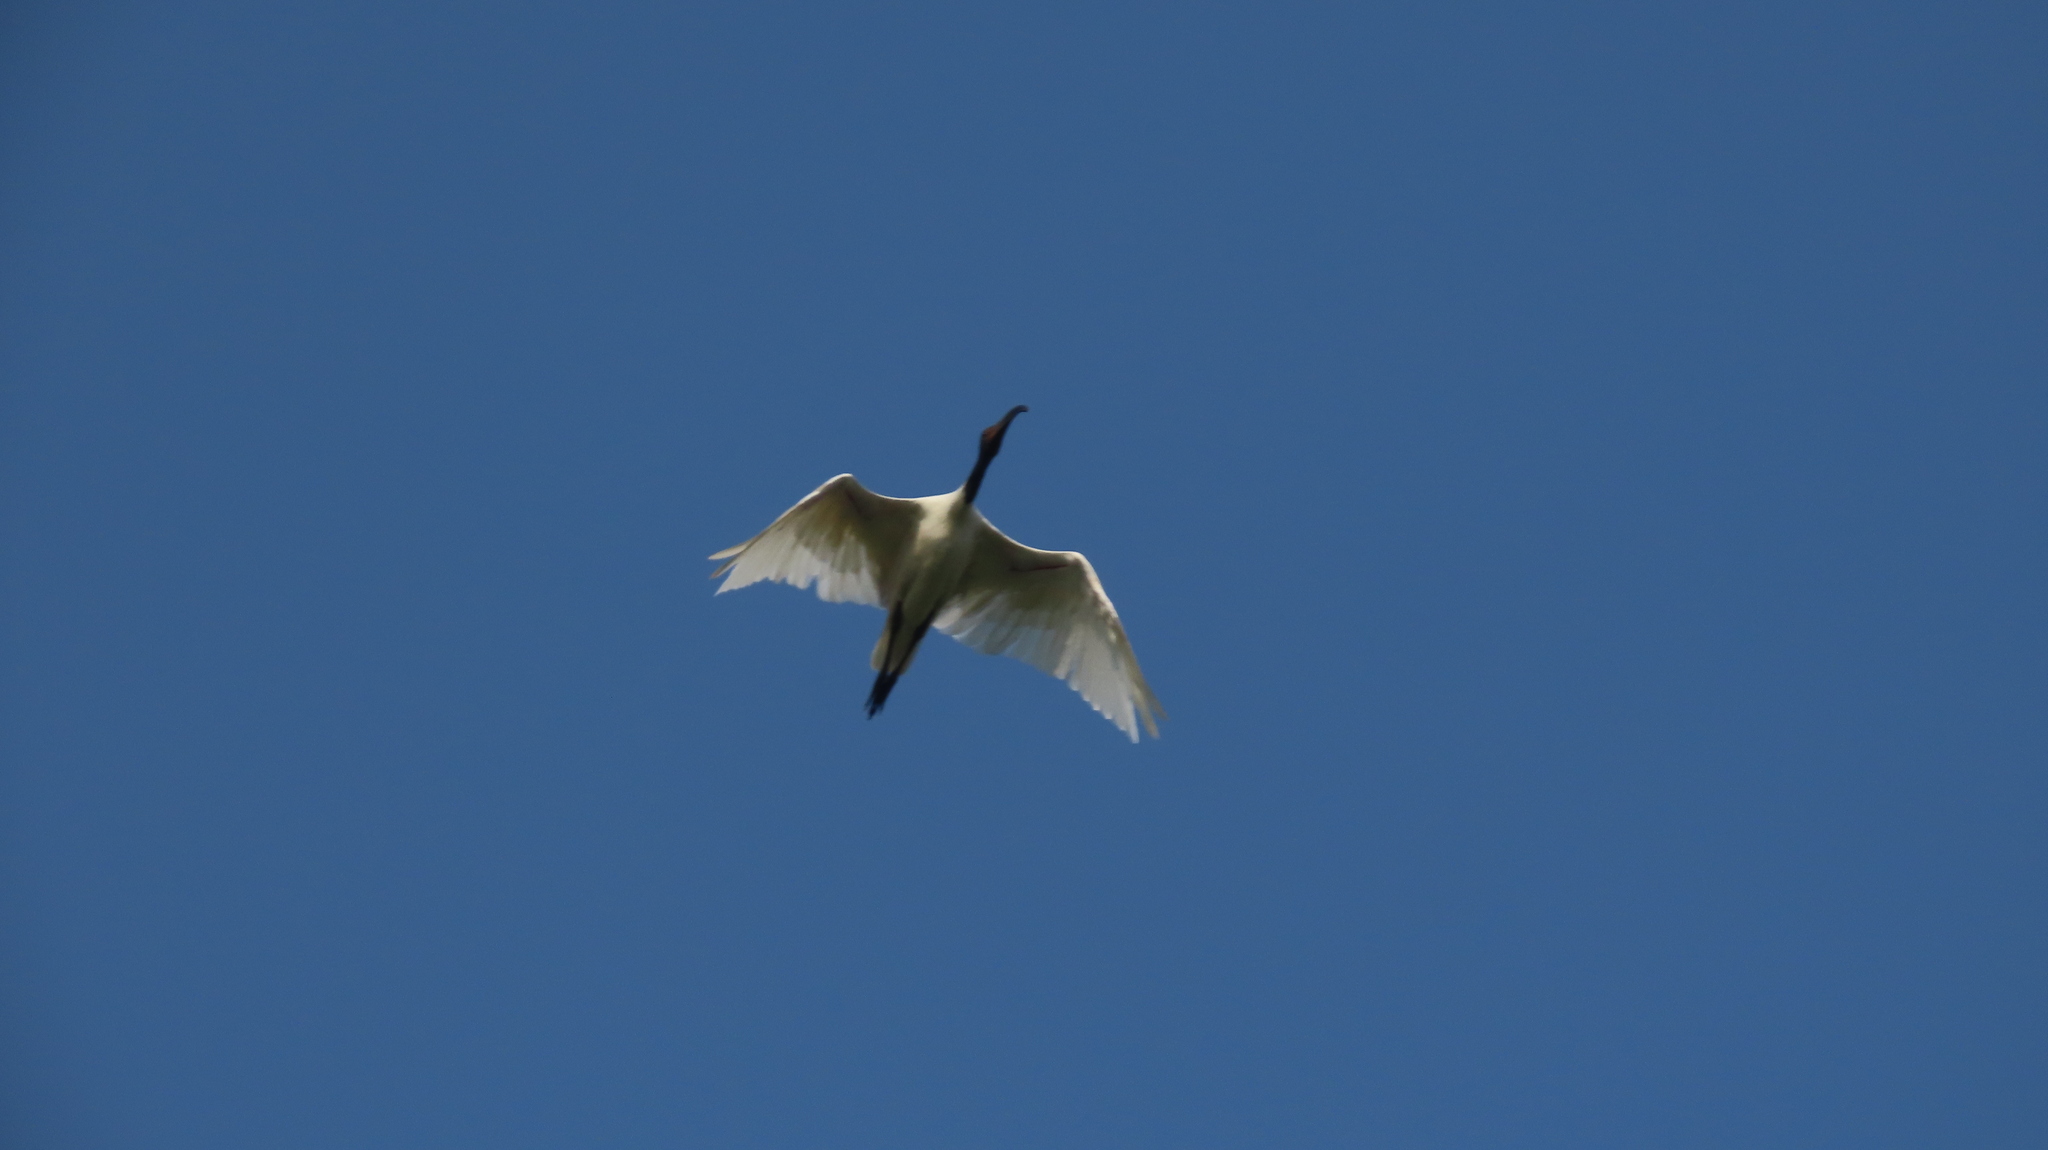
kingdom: Animalia
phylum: Chordata
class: Aves
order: Pelecaniformes
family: Threskiornithidae
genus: Threskiornis
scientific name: Threskiornis melanocephalus
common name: Black-headed ibis
